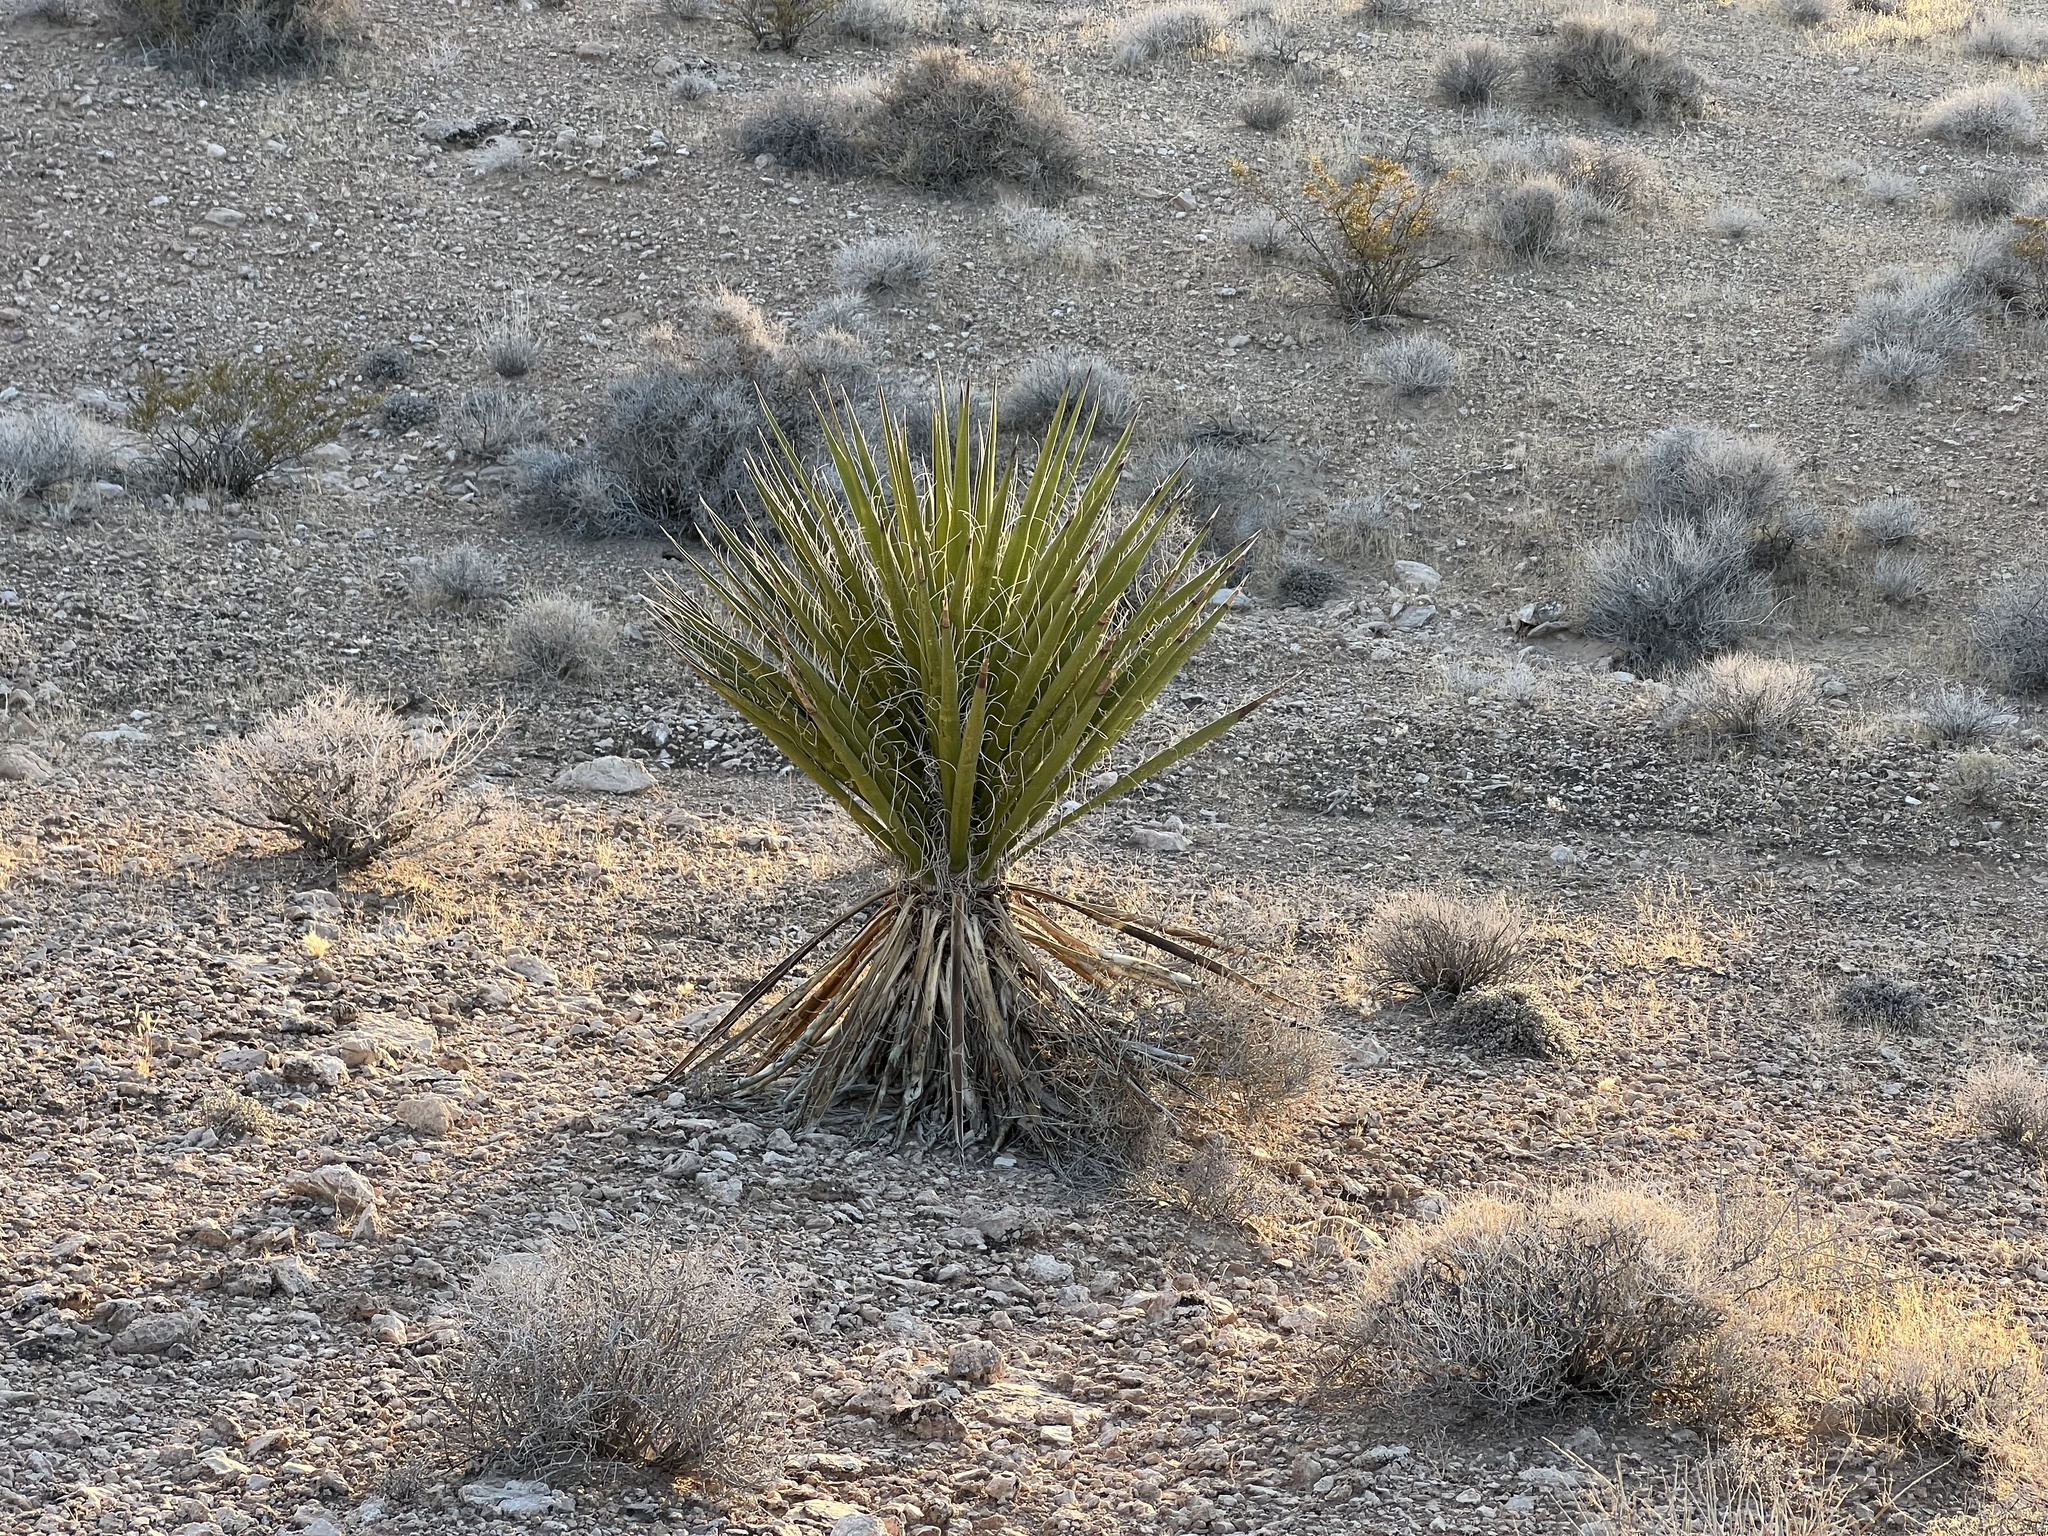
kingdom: Plantae
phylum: Tracheophyta
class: Liliopsida
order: Asparagales
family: Asparagaceae
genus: Yucca
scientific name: Yucca schidigera
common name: Mojave yucca
